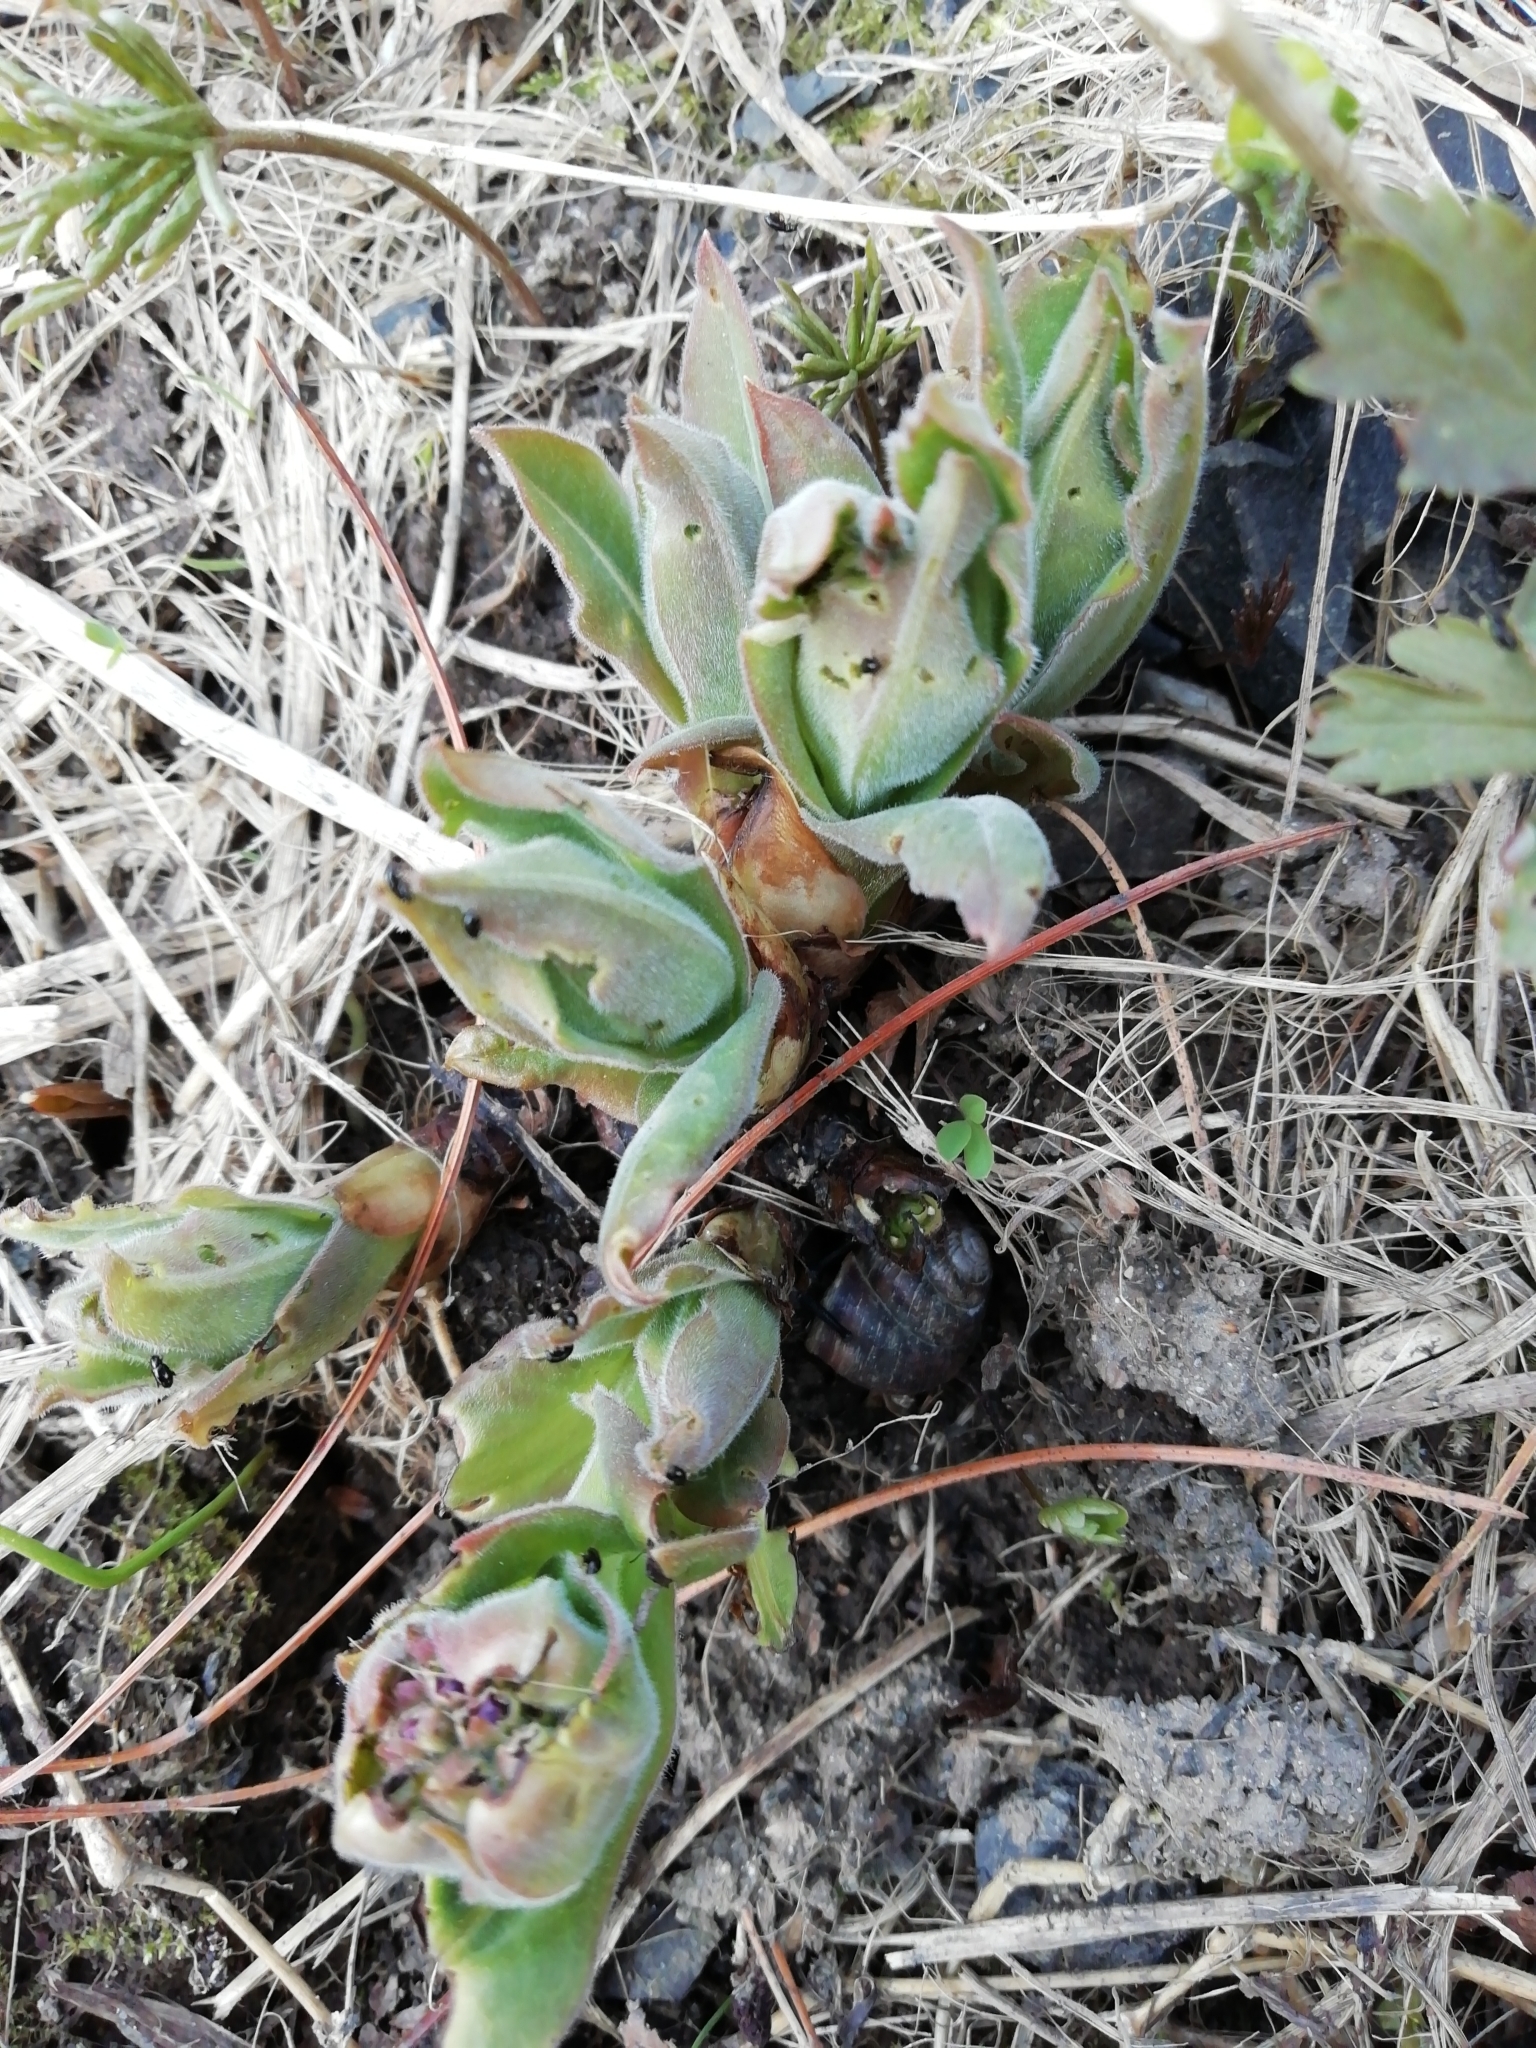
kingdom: Plantae
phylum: Tracheophyta
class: Magnoliopsida
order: Boraginales
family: Boraginaceae
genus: Pulmonaria
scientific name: Pulmonaria mollis
